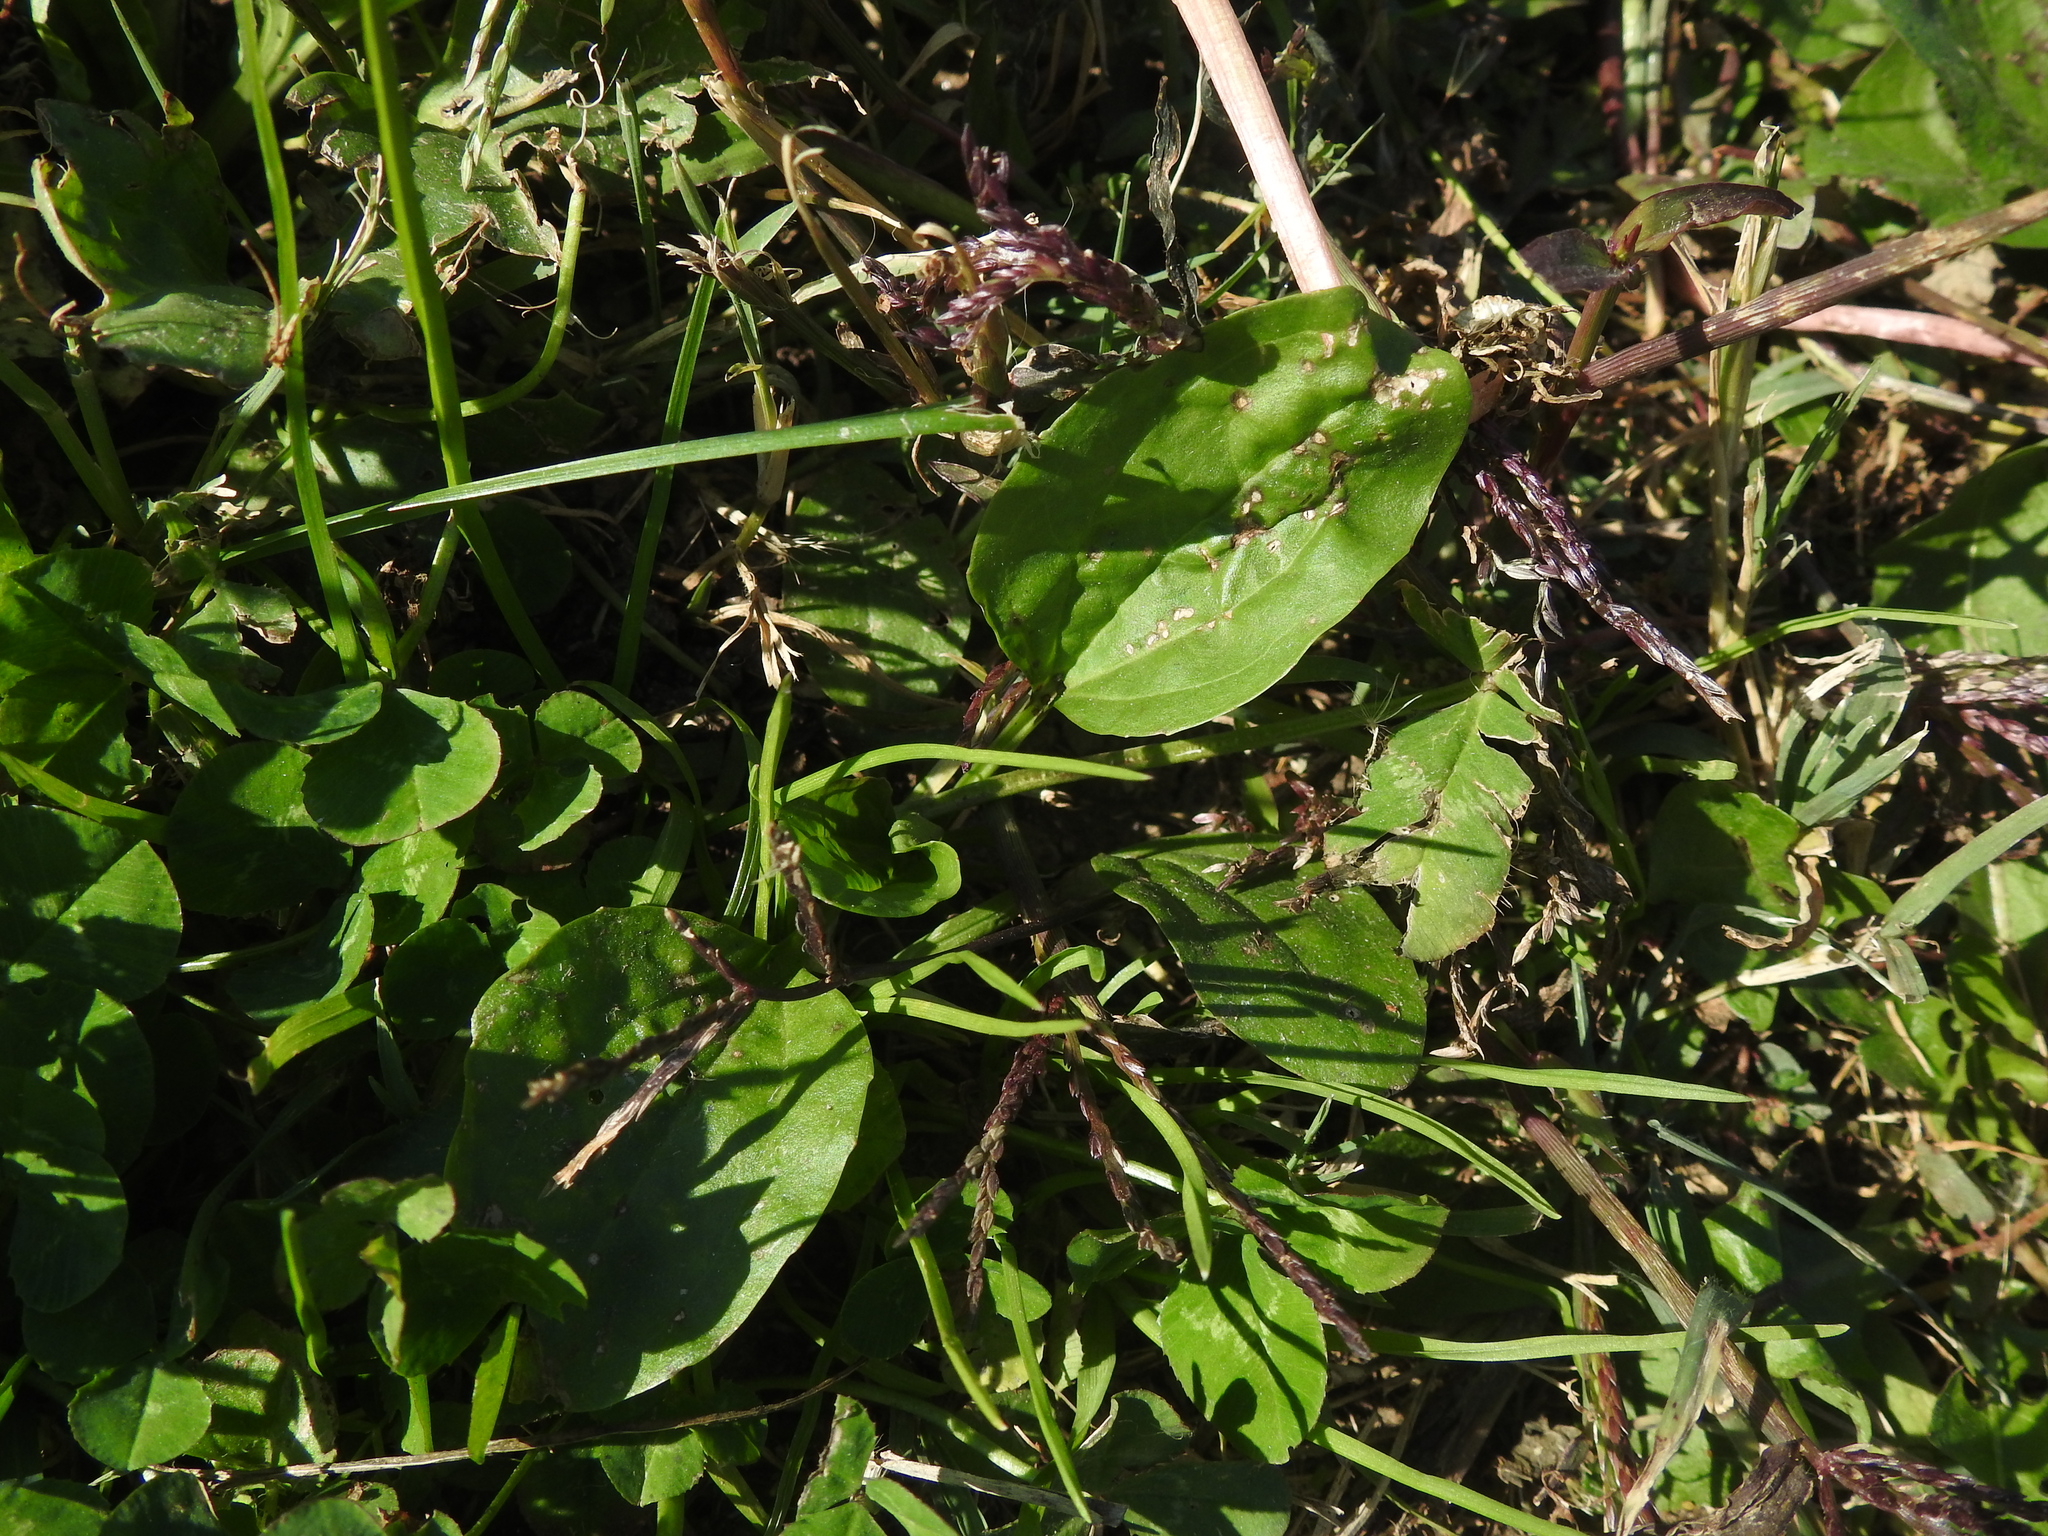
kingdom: Plantae
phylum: Tracheophyta
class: Magnoliopsida
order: Lamiales
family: Plantaginaceae
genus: Plantago
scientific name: Plantago major
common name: Common plantain
